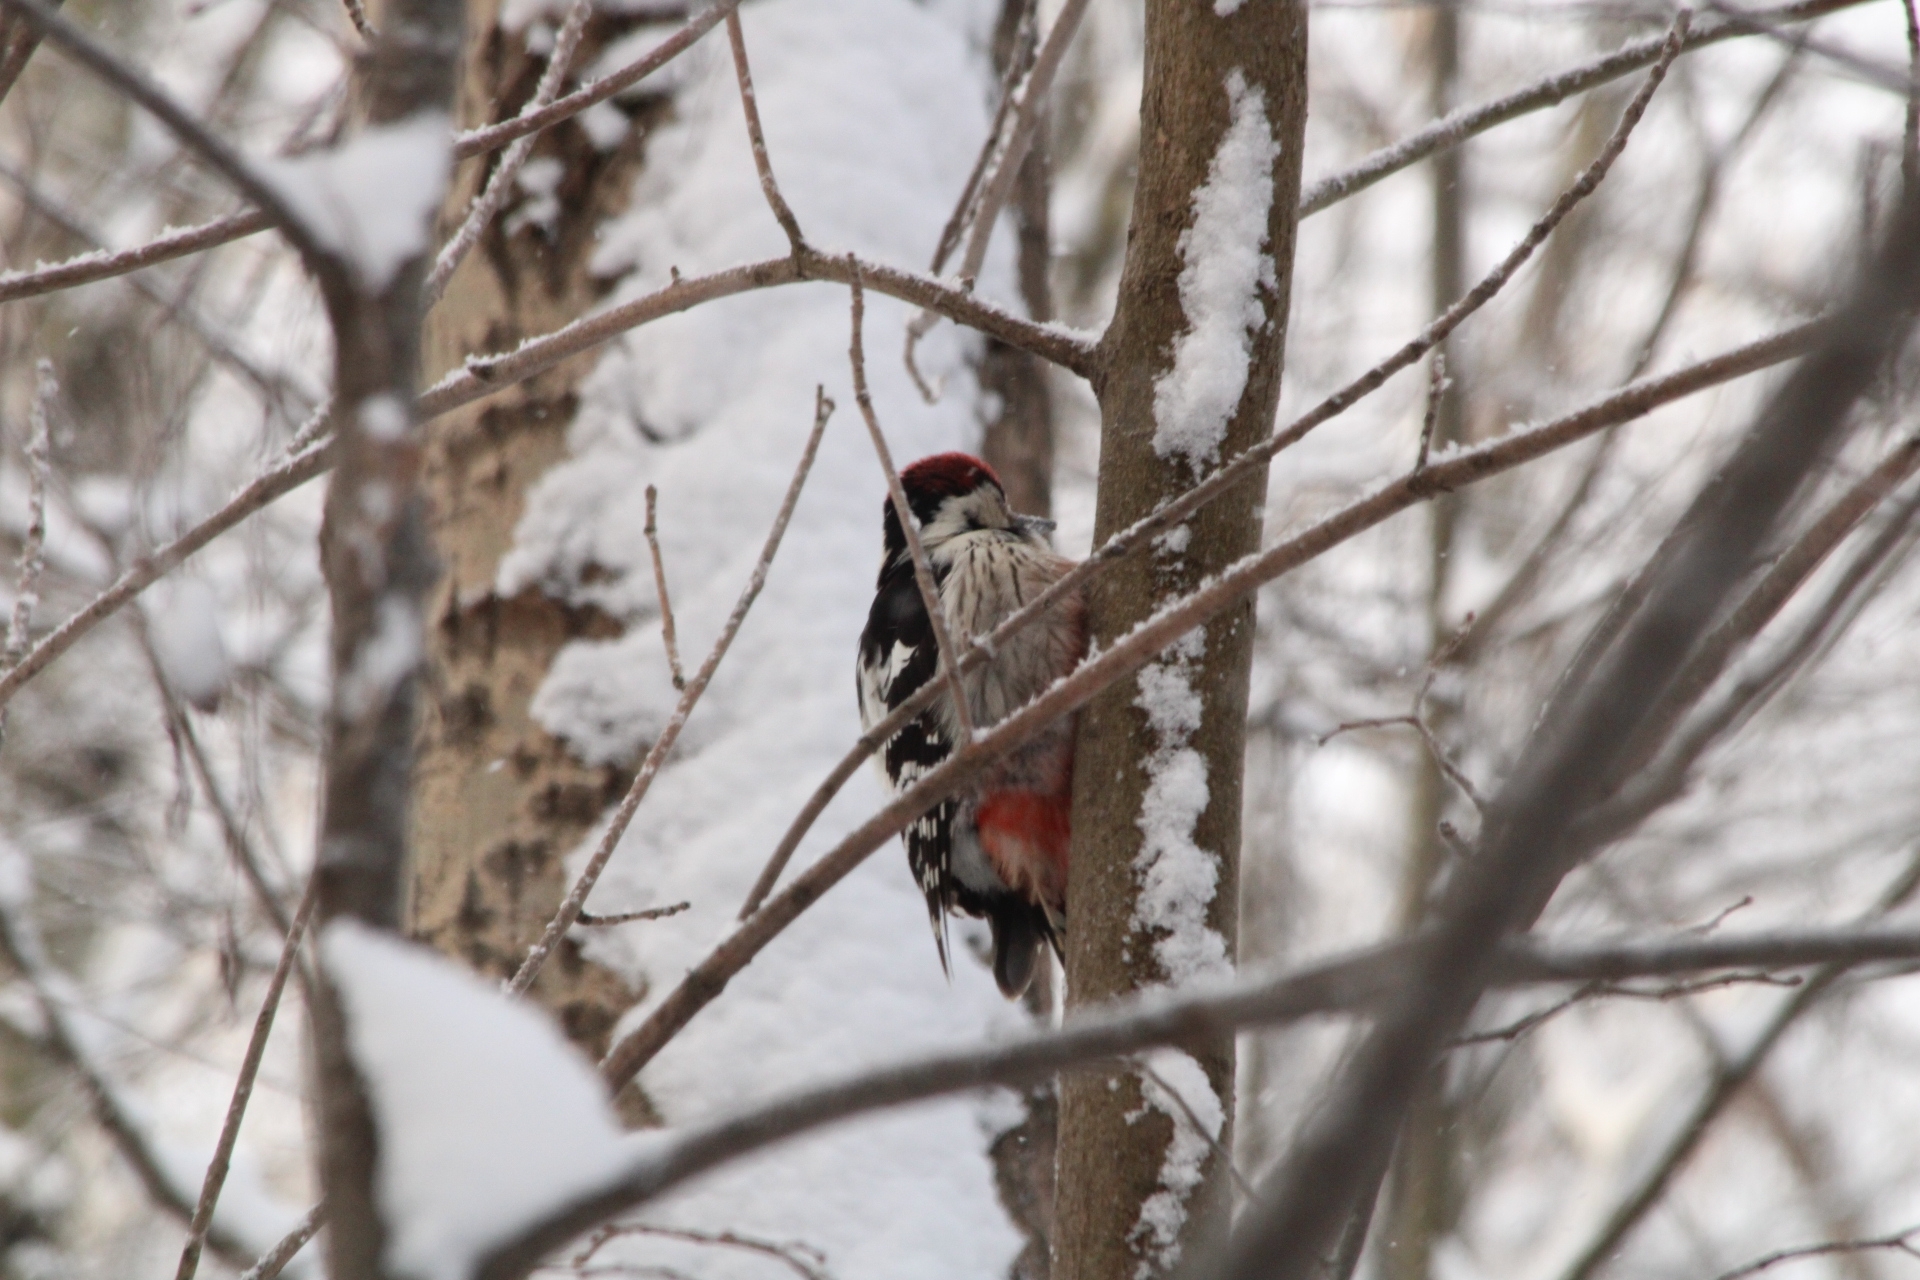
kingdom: Animalia
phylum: Chordata
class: Aves
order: Piciformes
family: Picidae
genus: Dendrocopos
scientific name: Dendrocopos leucotos
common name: White-backed woodpecker
